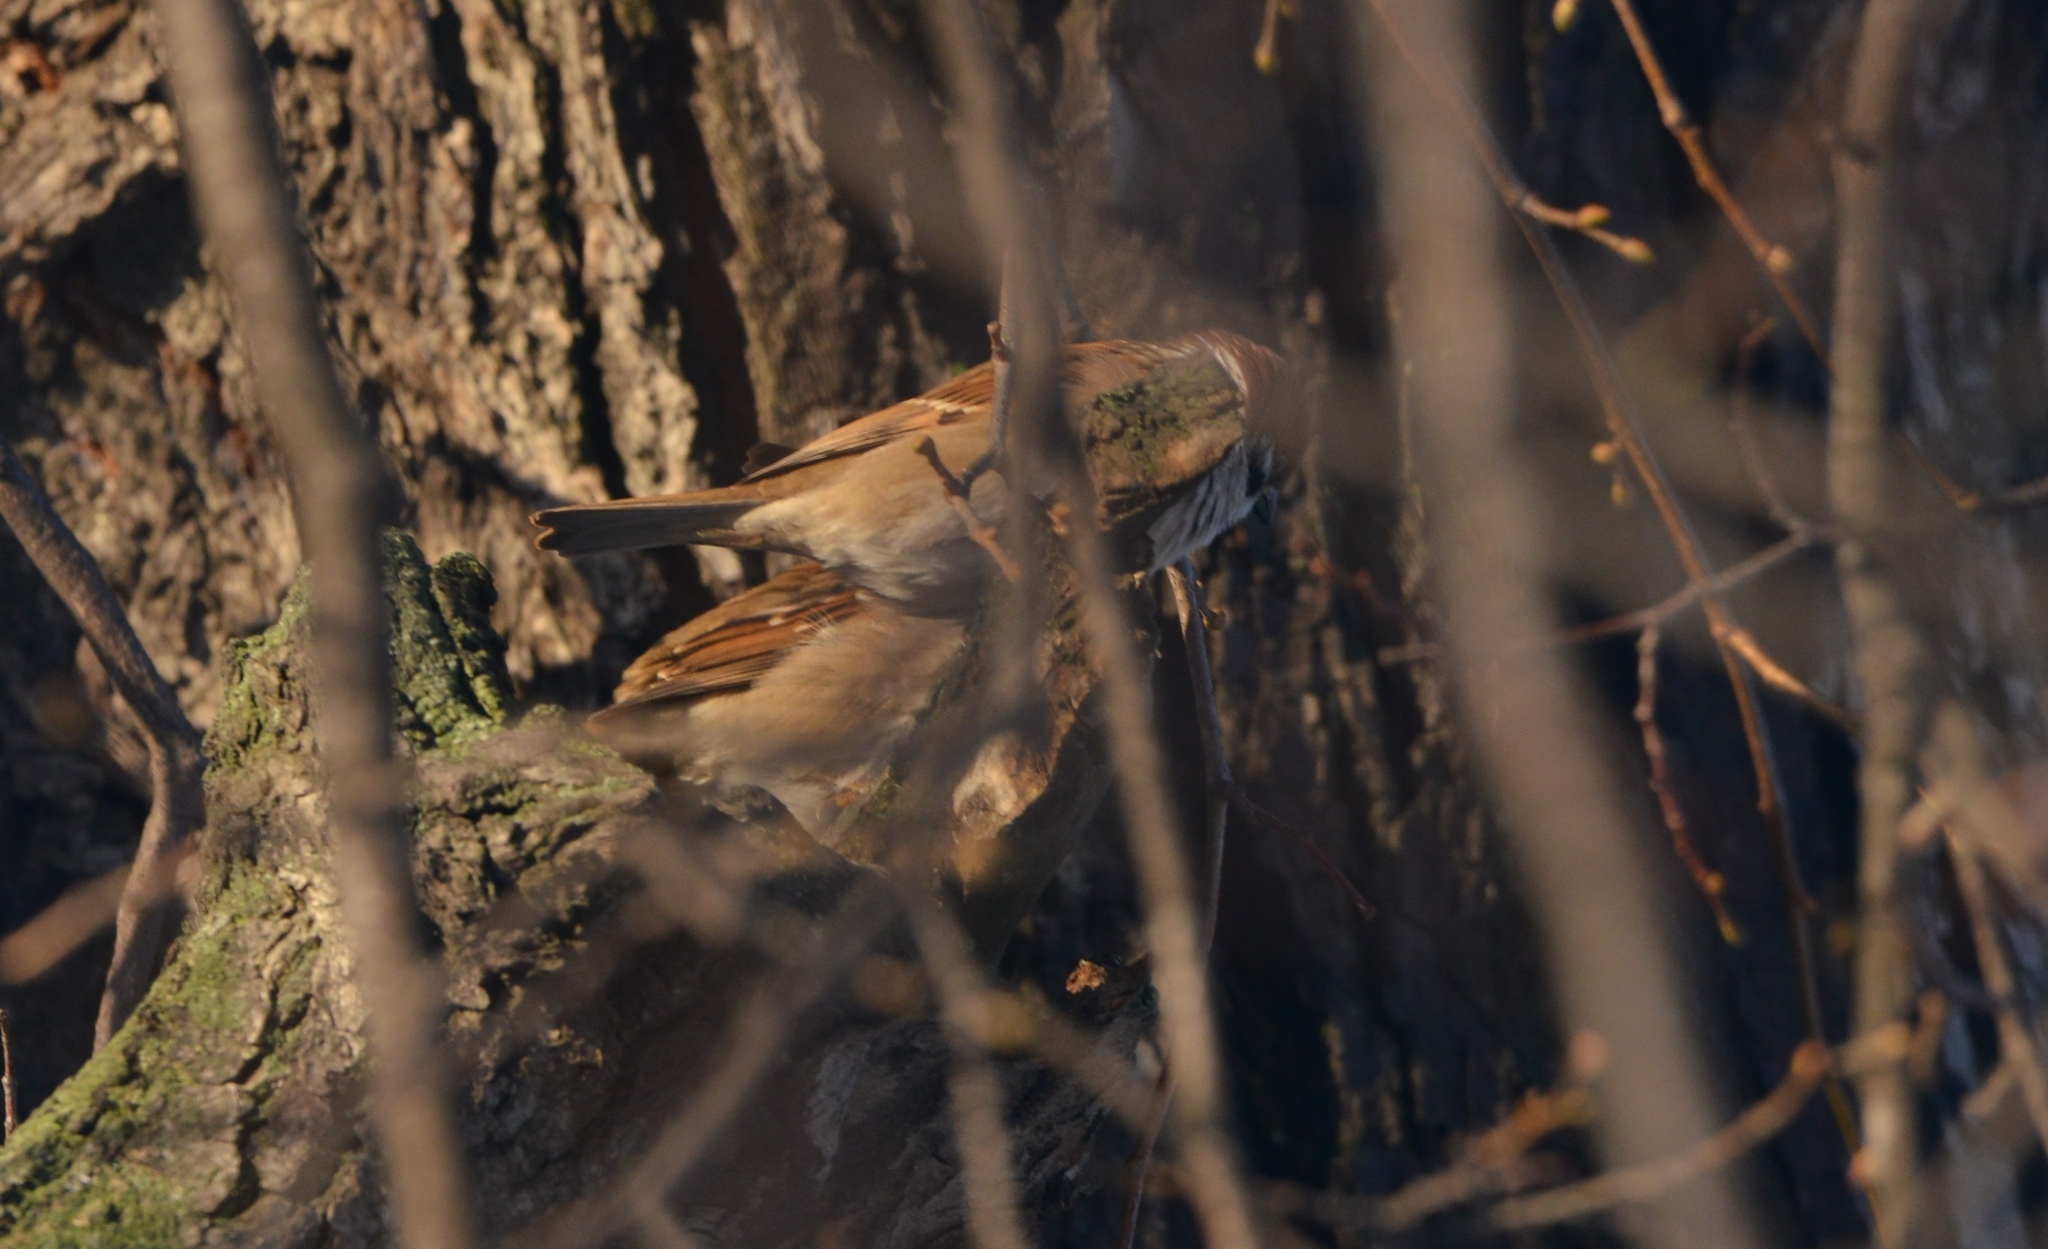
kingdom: Animalia
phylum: Chordata
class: Aves
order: Passeriformes
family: Passeridae
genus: Passer
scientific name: Passer montanus
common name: Eurasian tree sparrow
